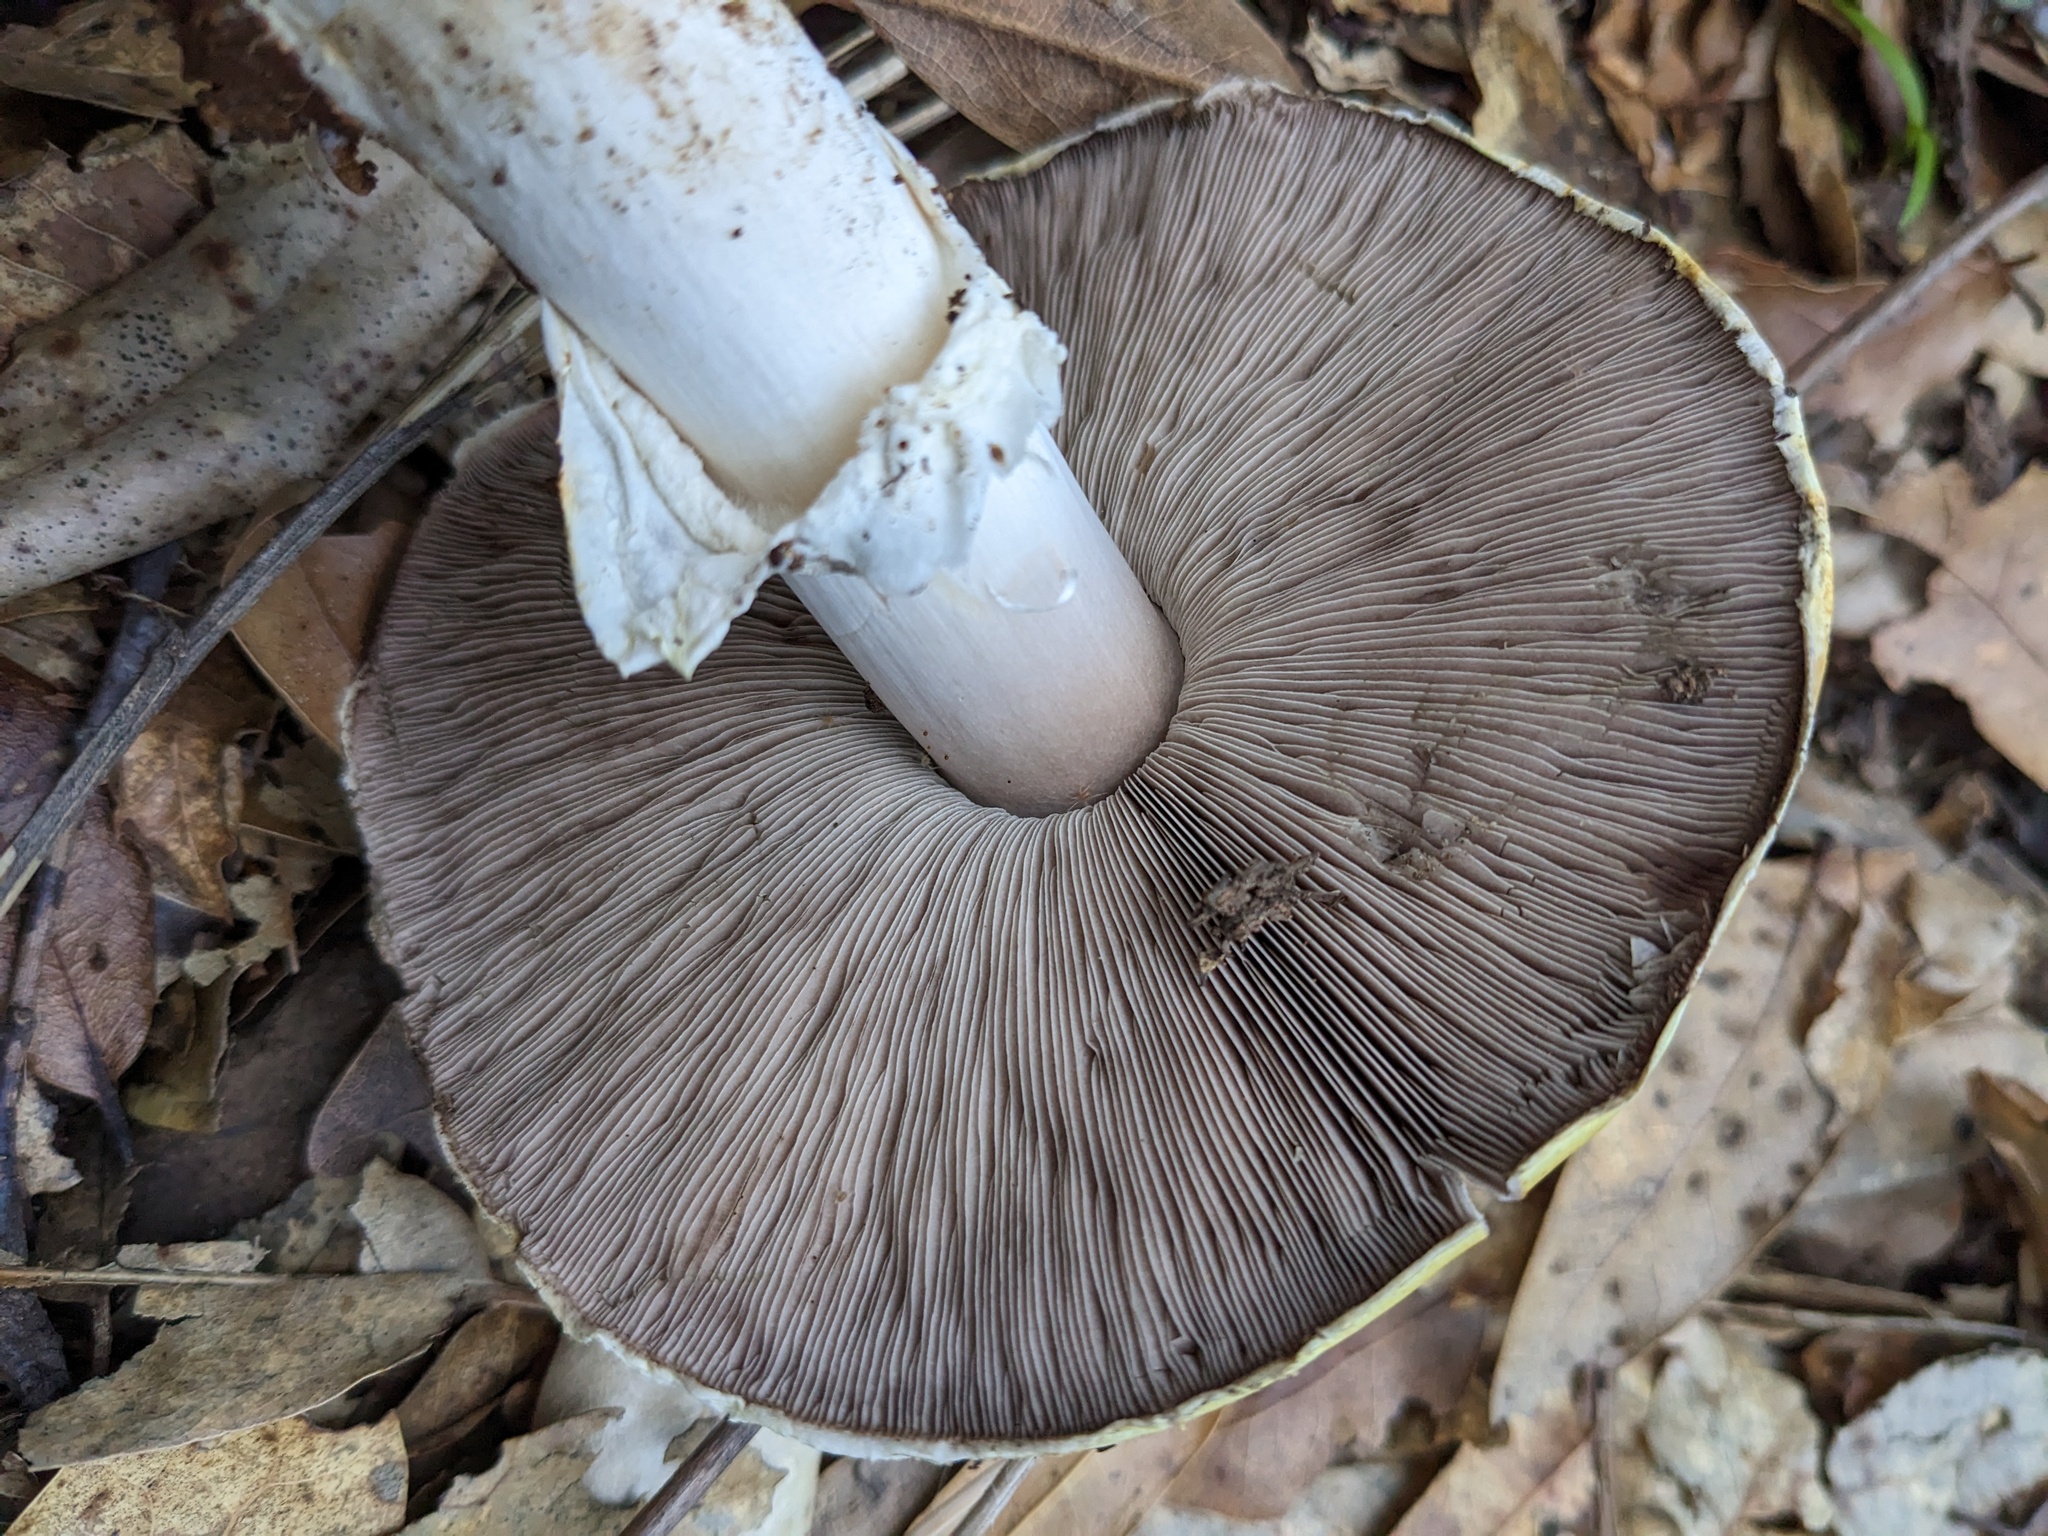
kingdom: Fungi
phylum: Basidiomycota
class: Agaricomycetes
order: Agaricales
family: Agaricaceae
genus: Agaricus
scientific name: Agaricus cruciquercorum
